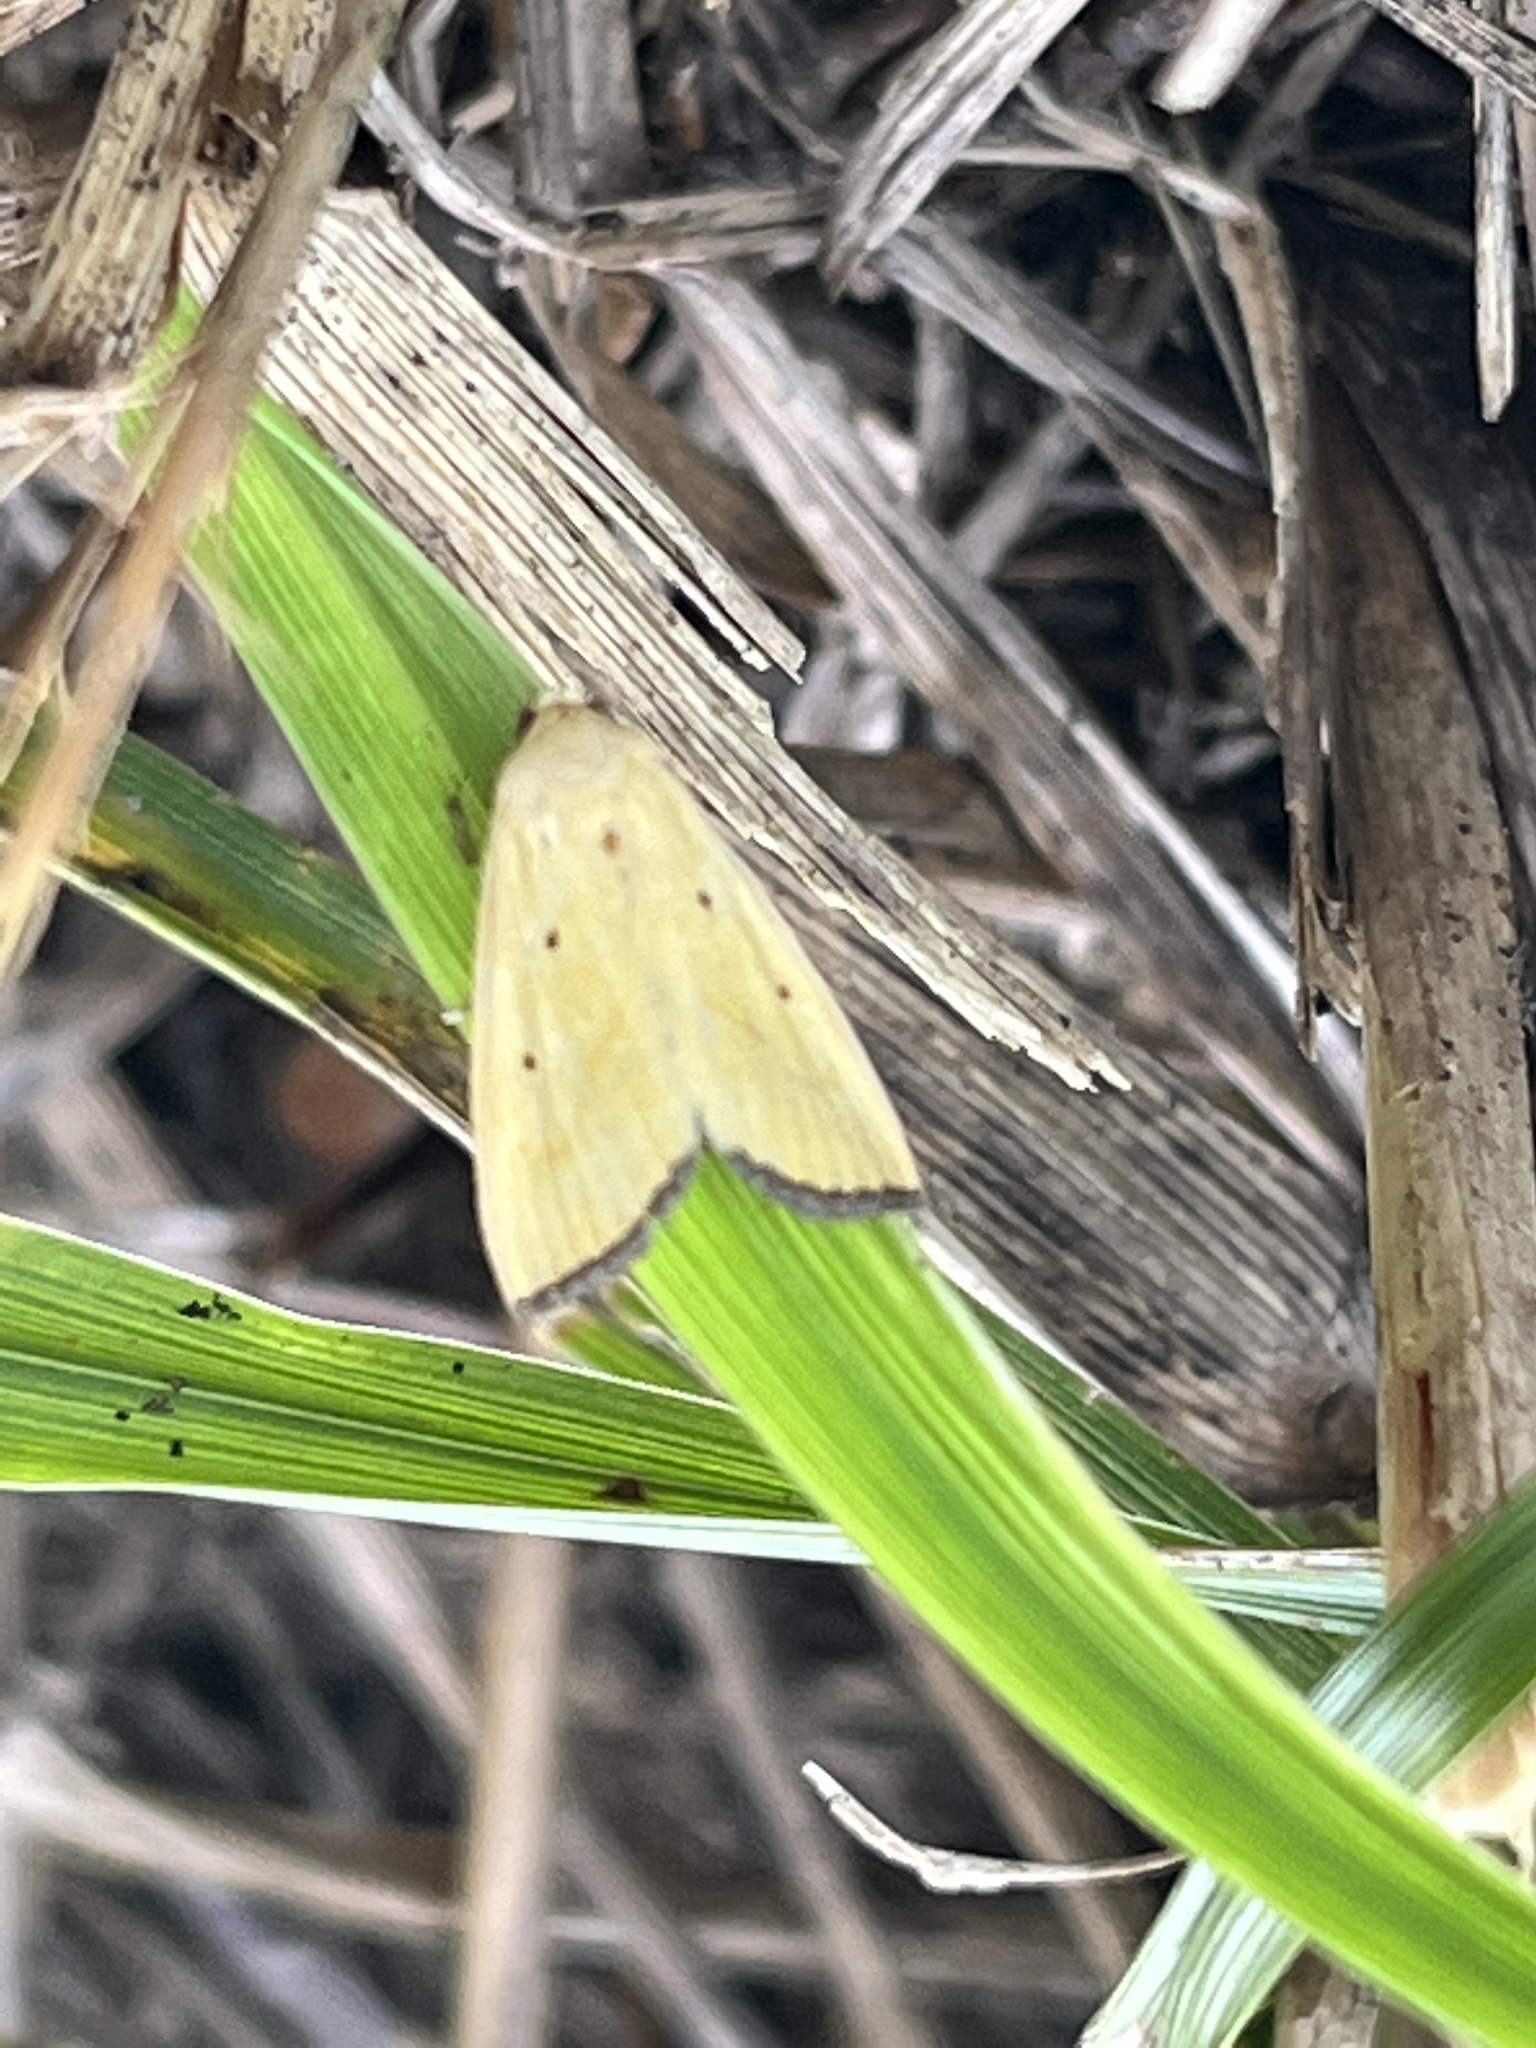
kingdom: Animalia
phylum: Arthropoda
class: Insecta
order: Lepidoptera
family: Noctuidae
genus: Marimatha
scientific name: Marimatha nigrofimbria
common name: Black-bordered lemon moth
